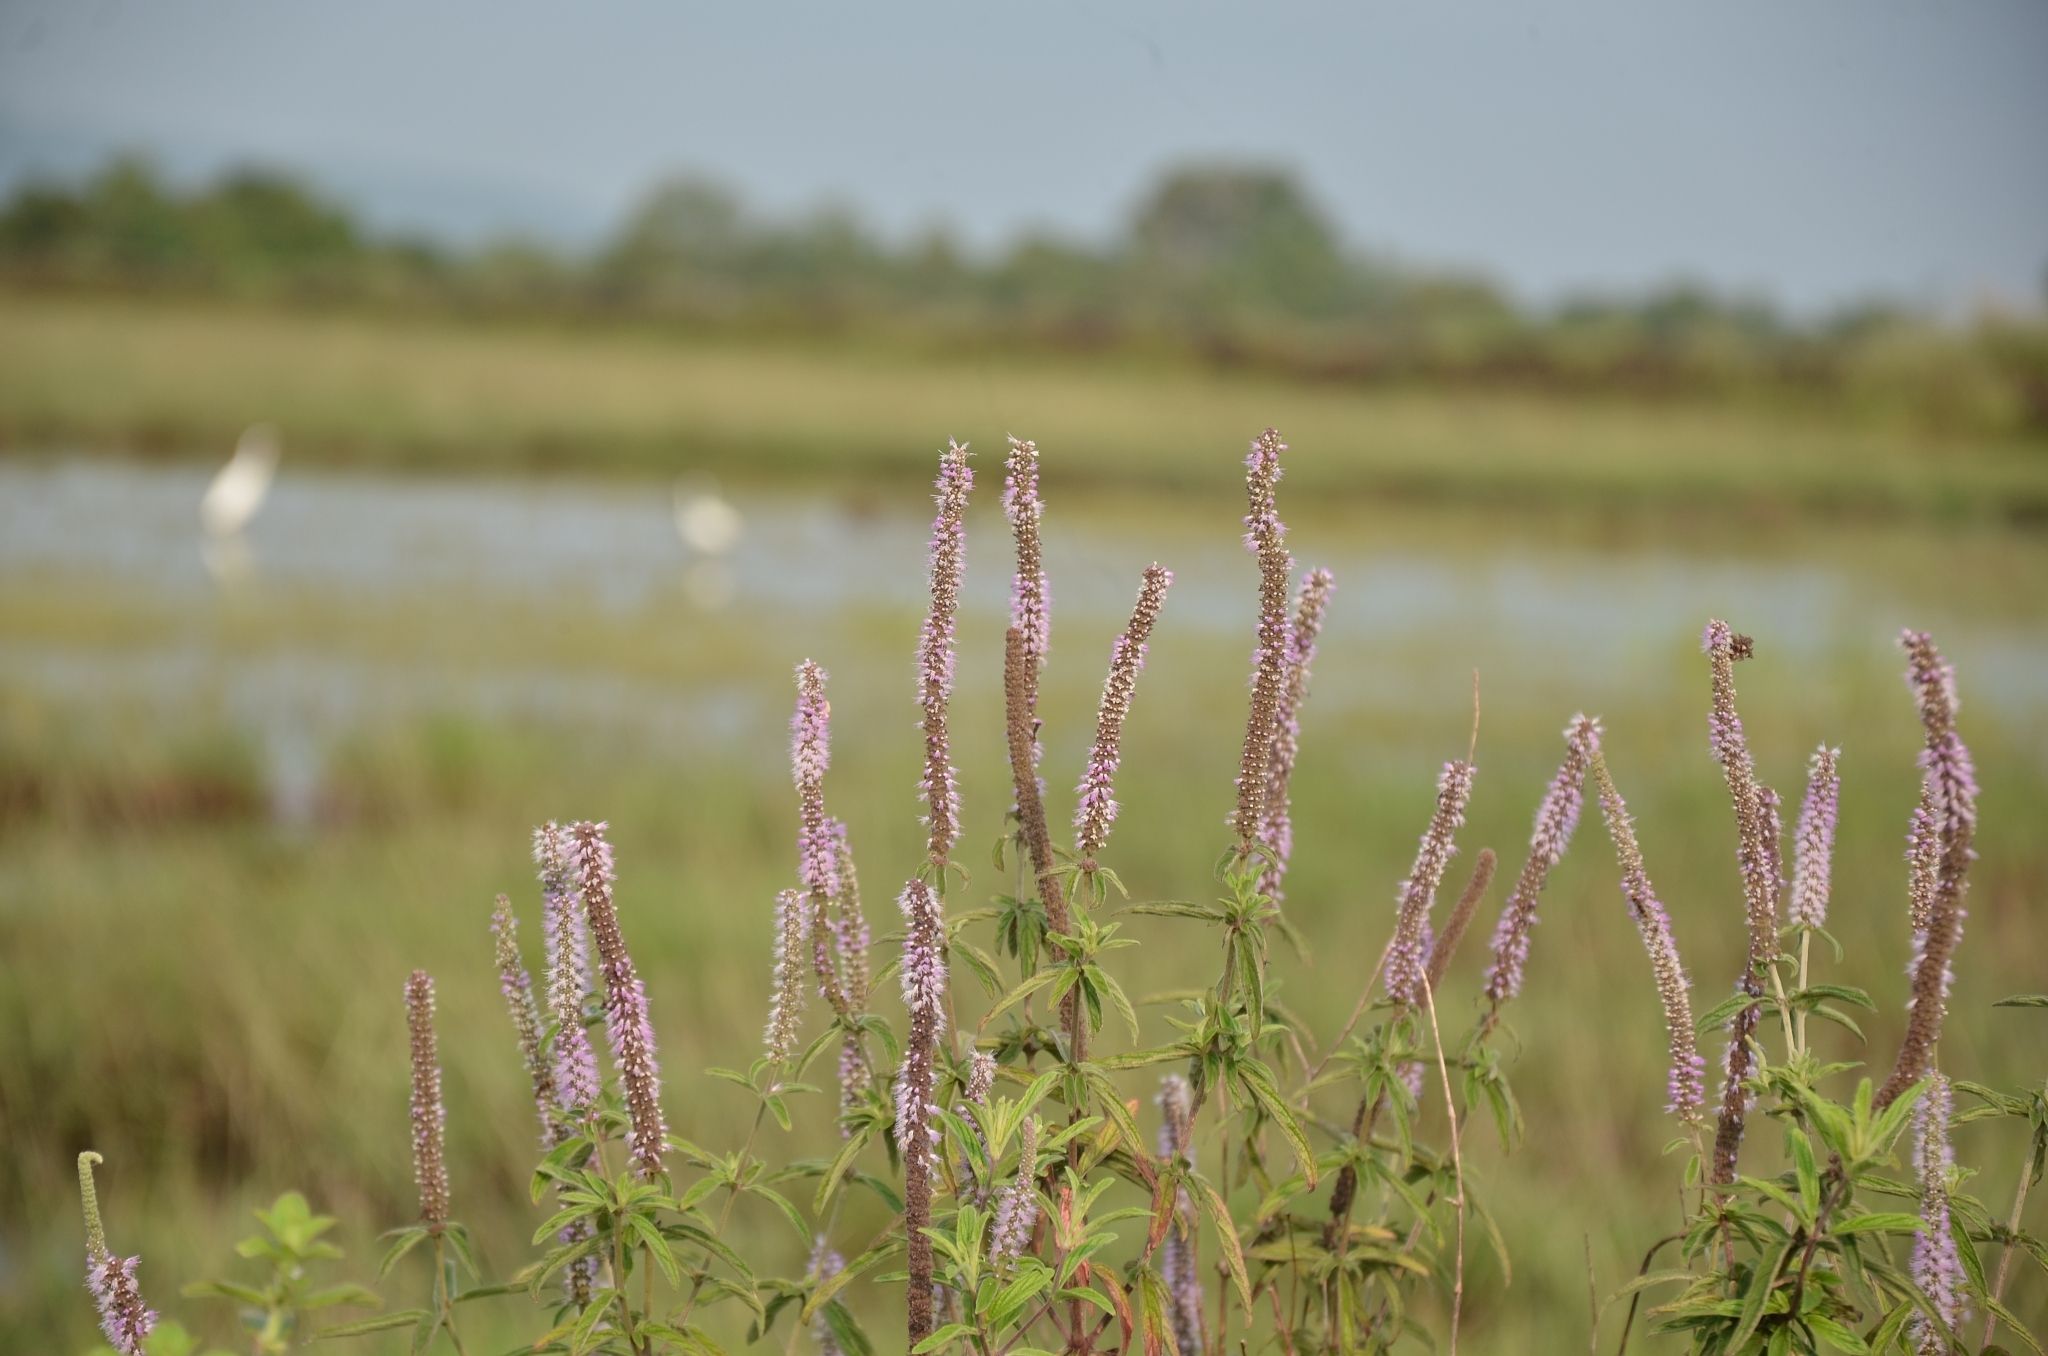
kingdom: Plantae
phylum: Tracheophyta
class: Magnoliopsida
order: Lamiales
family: Lamiaceae
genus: Pogostemon
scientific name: Pogostemon quadrifolius
